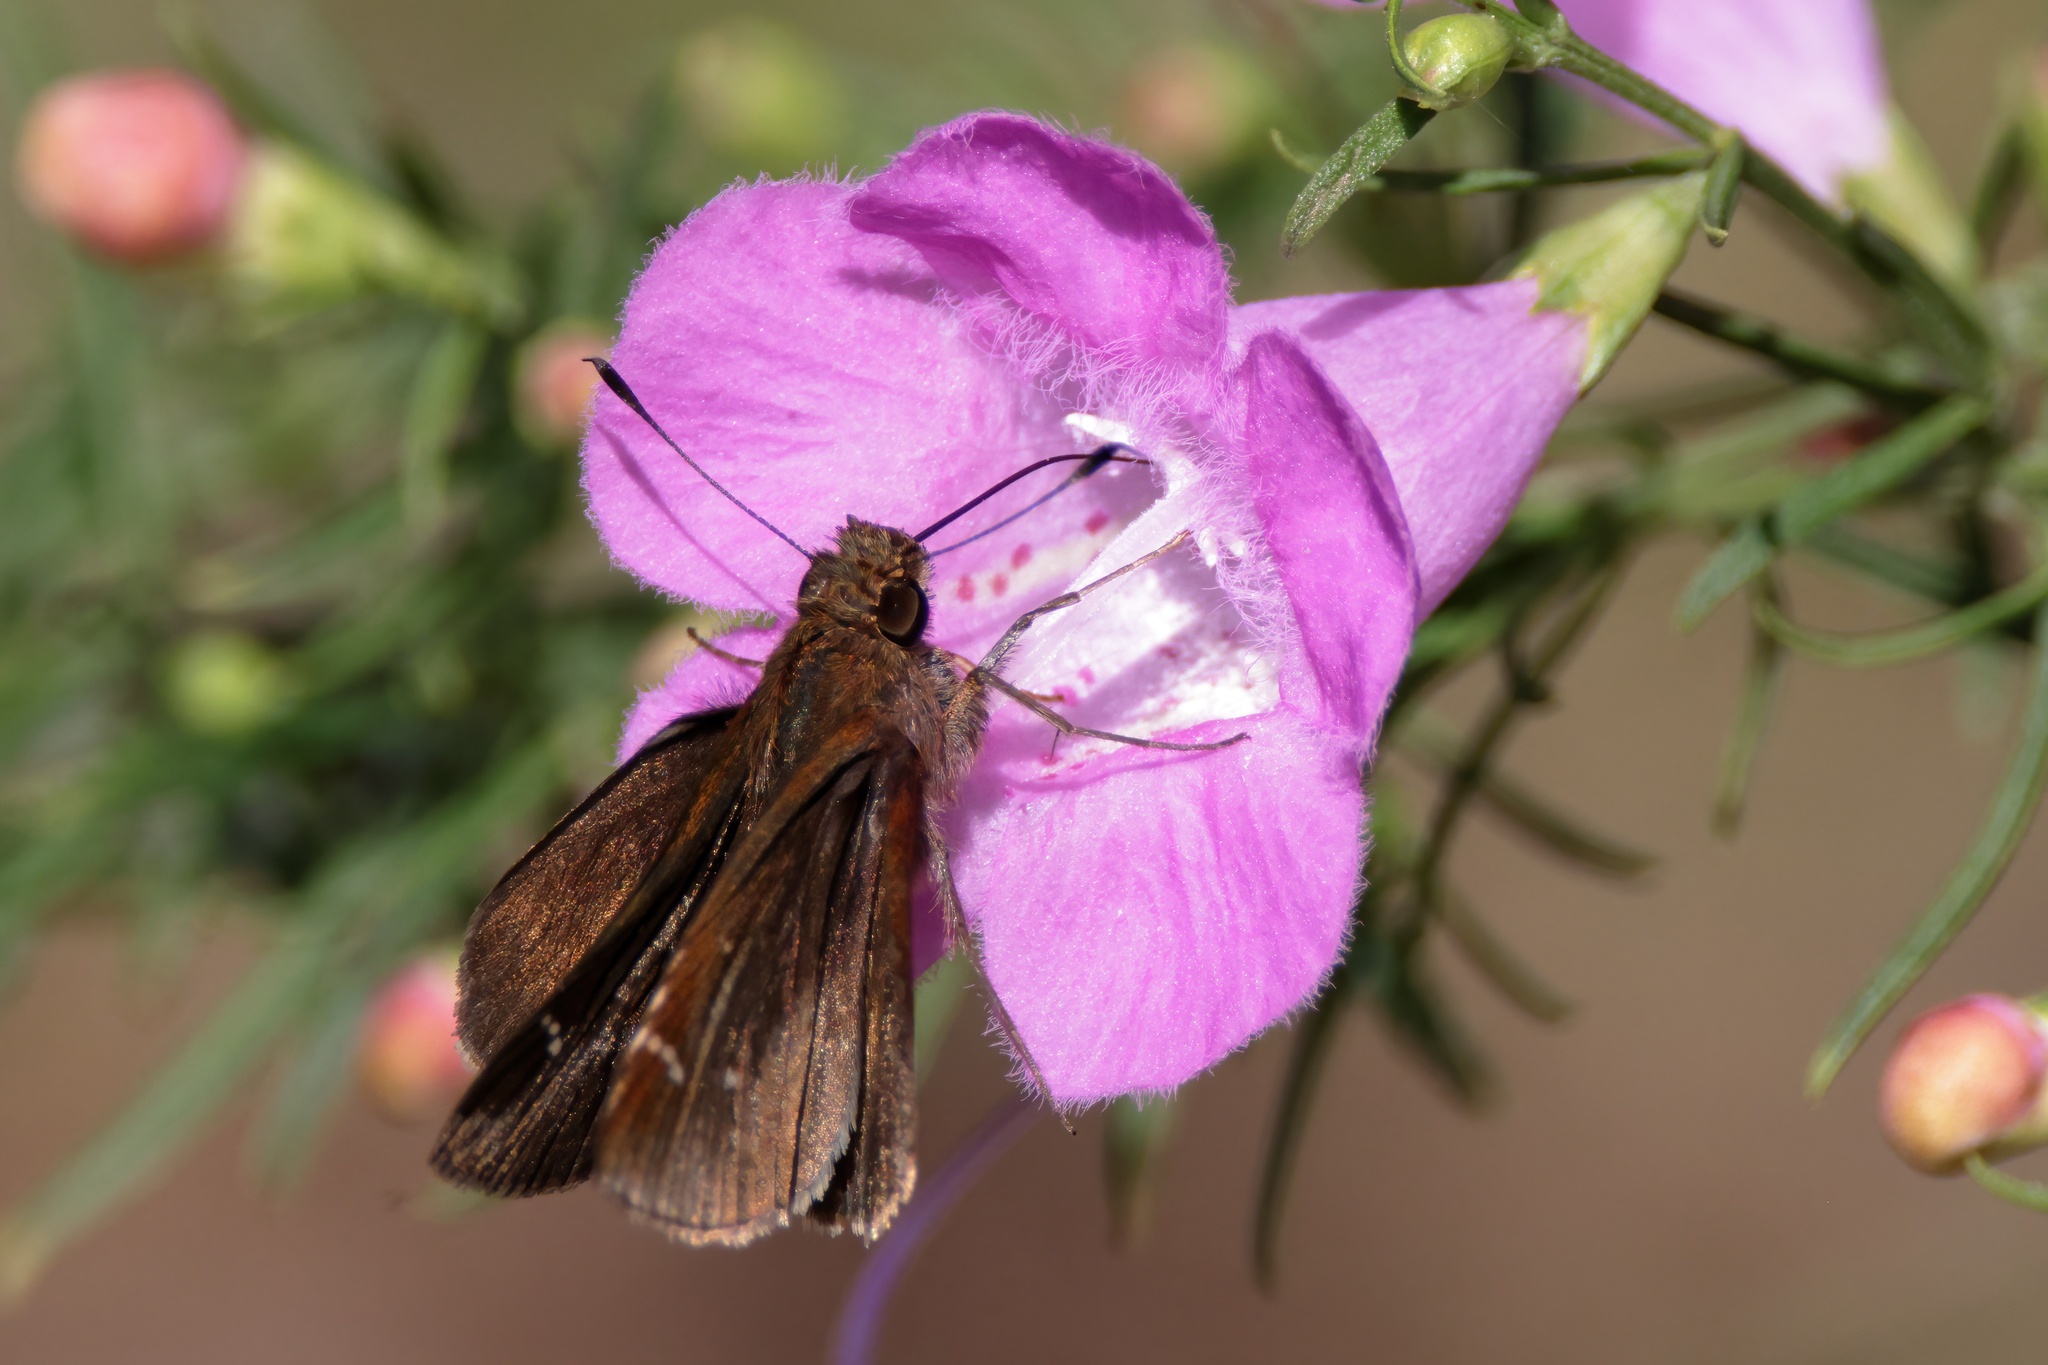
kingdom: Animalia
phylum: Arthropoda
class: Insecta
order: Lepidoptera
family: Hesperiidae
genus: Lerema
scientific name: Lerema accius
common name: Clouded skipper
